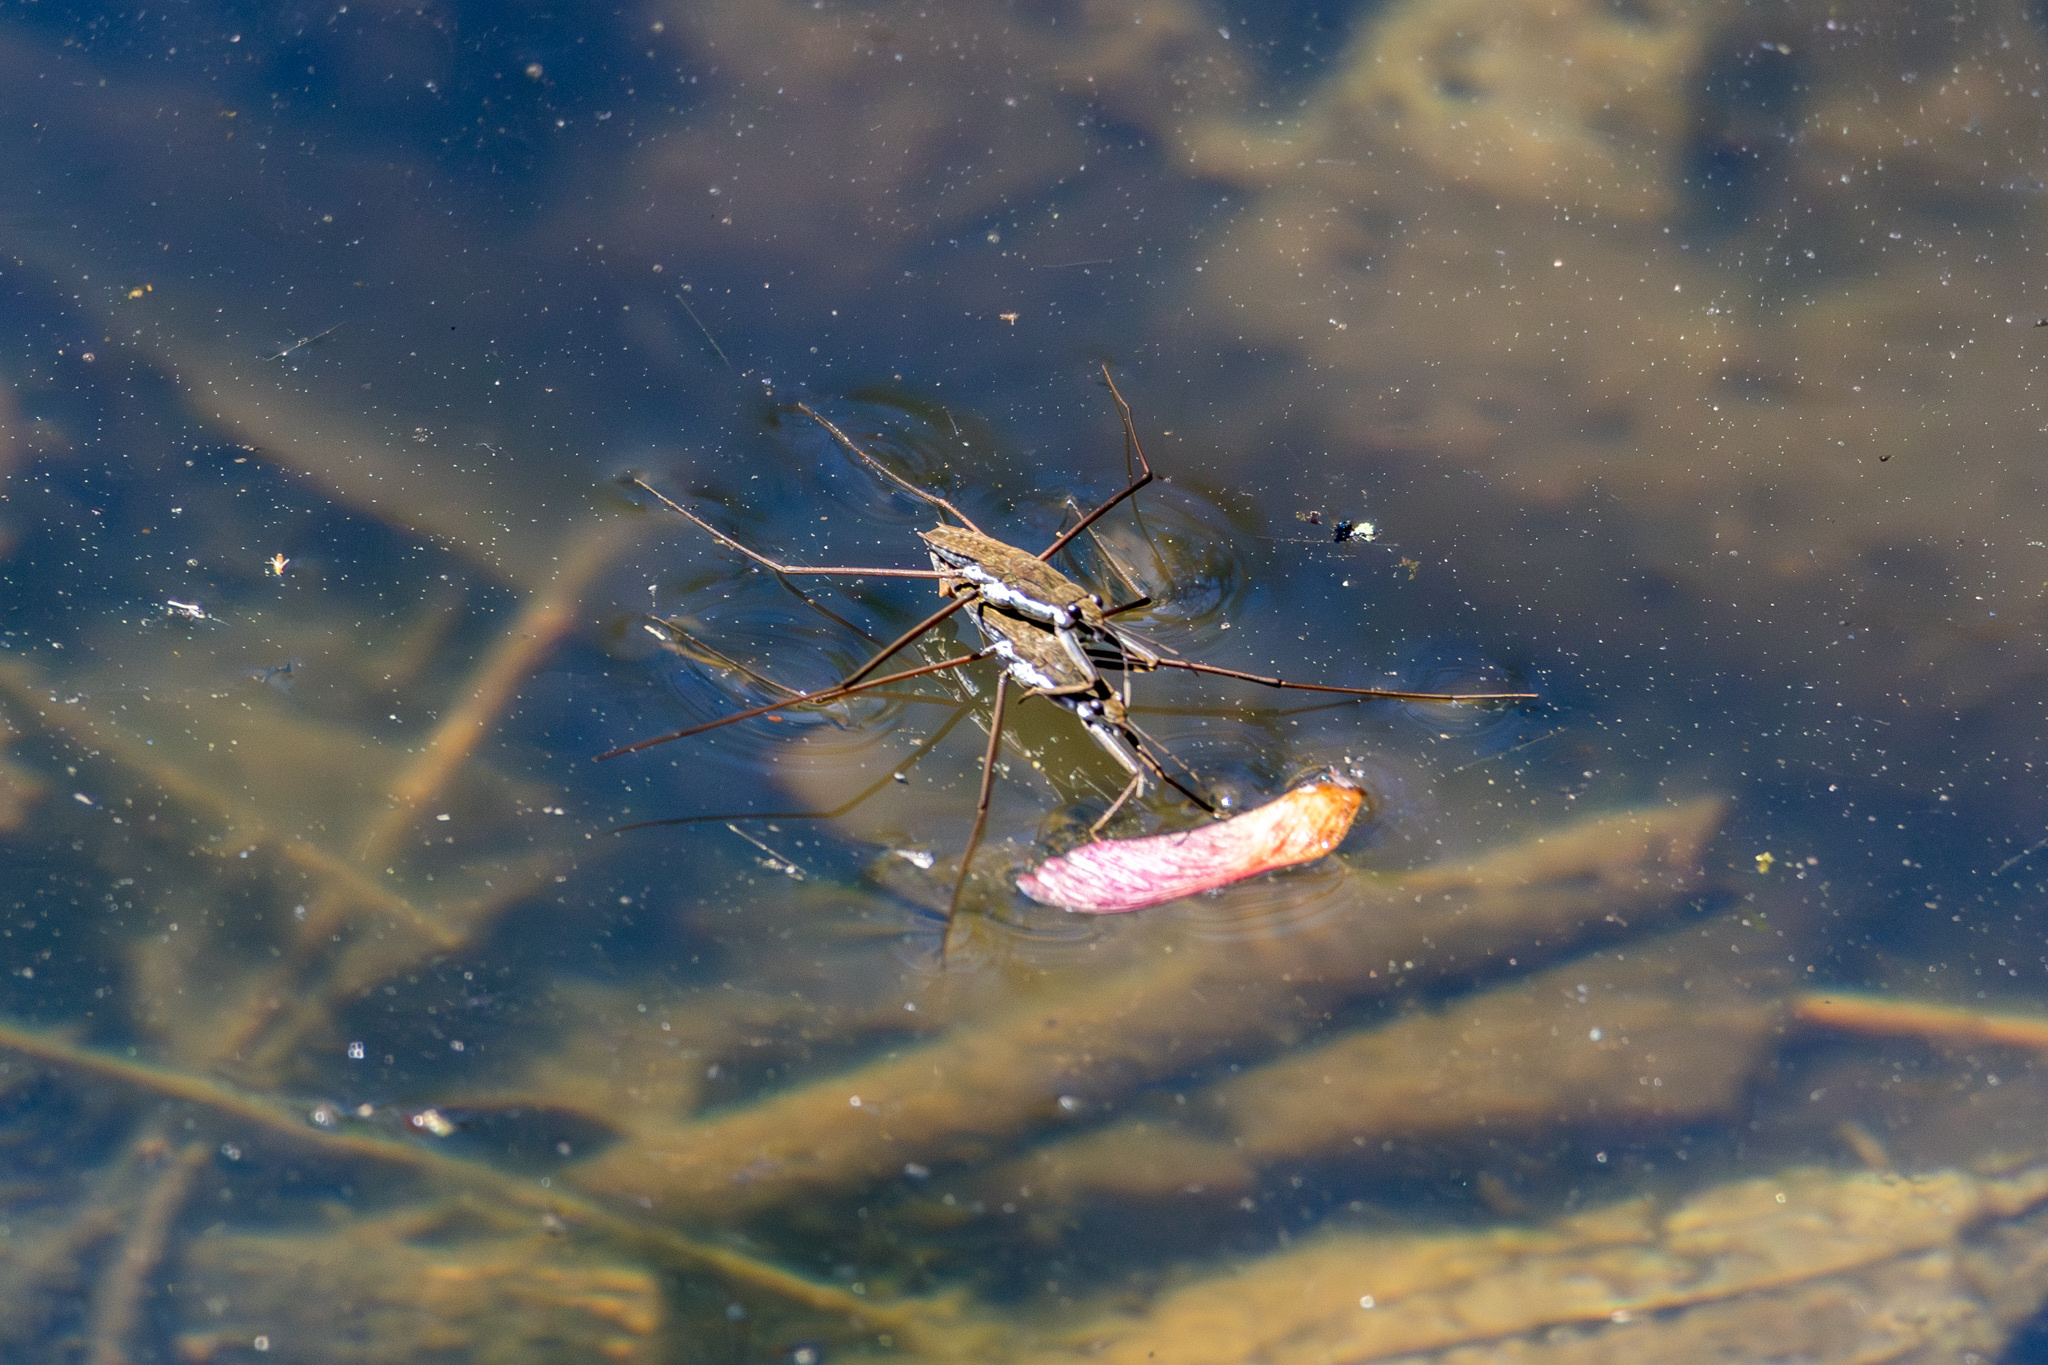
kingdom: Animalia
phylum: Arthropoda
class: Insecta
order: Hemiptera
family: Gerridae
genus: Aquarius
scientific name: Aquarius
